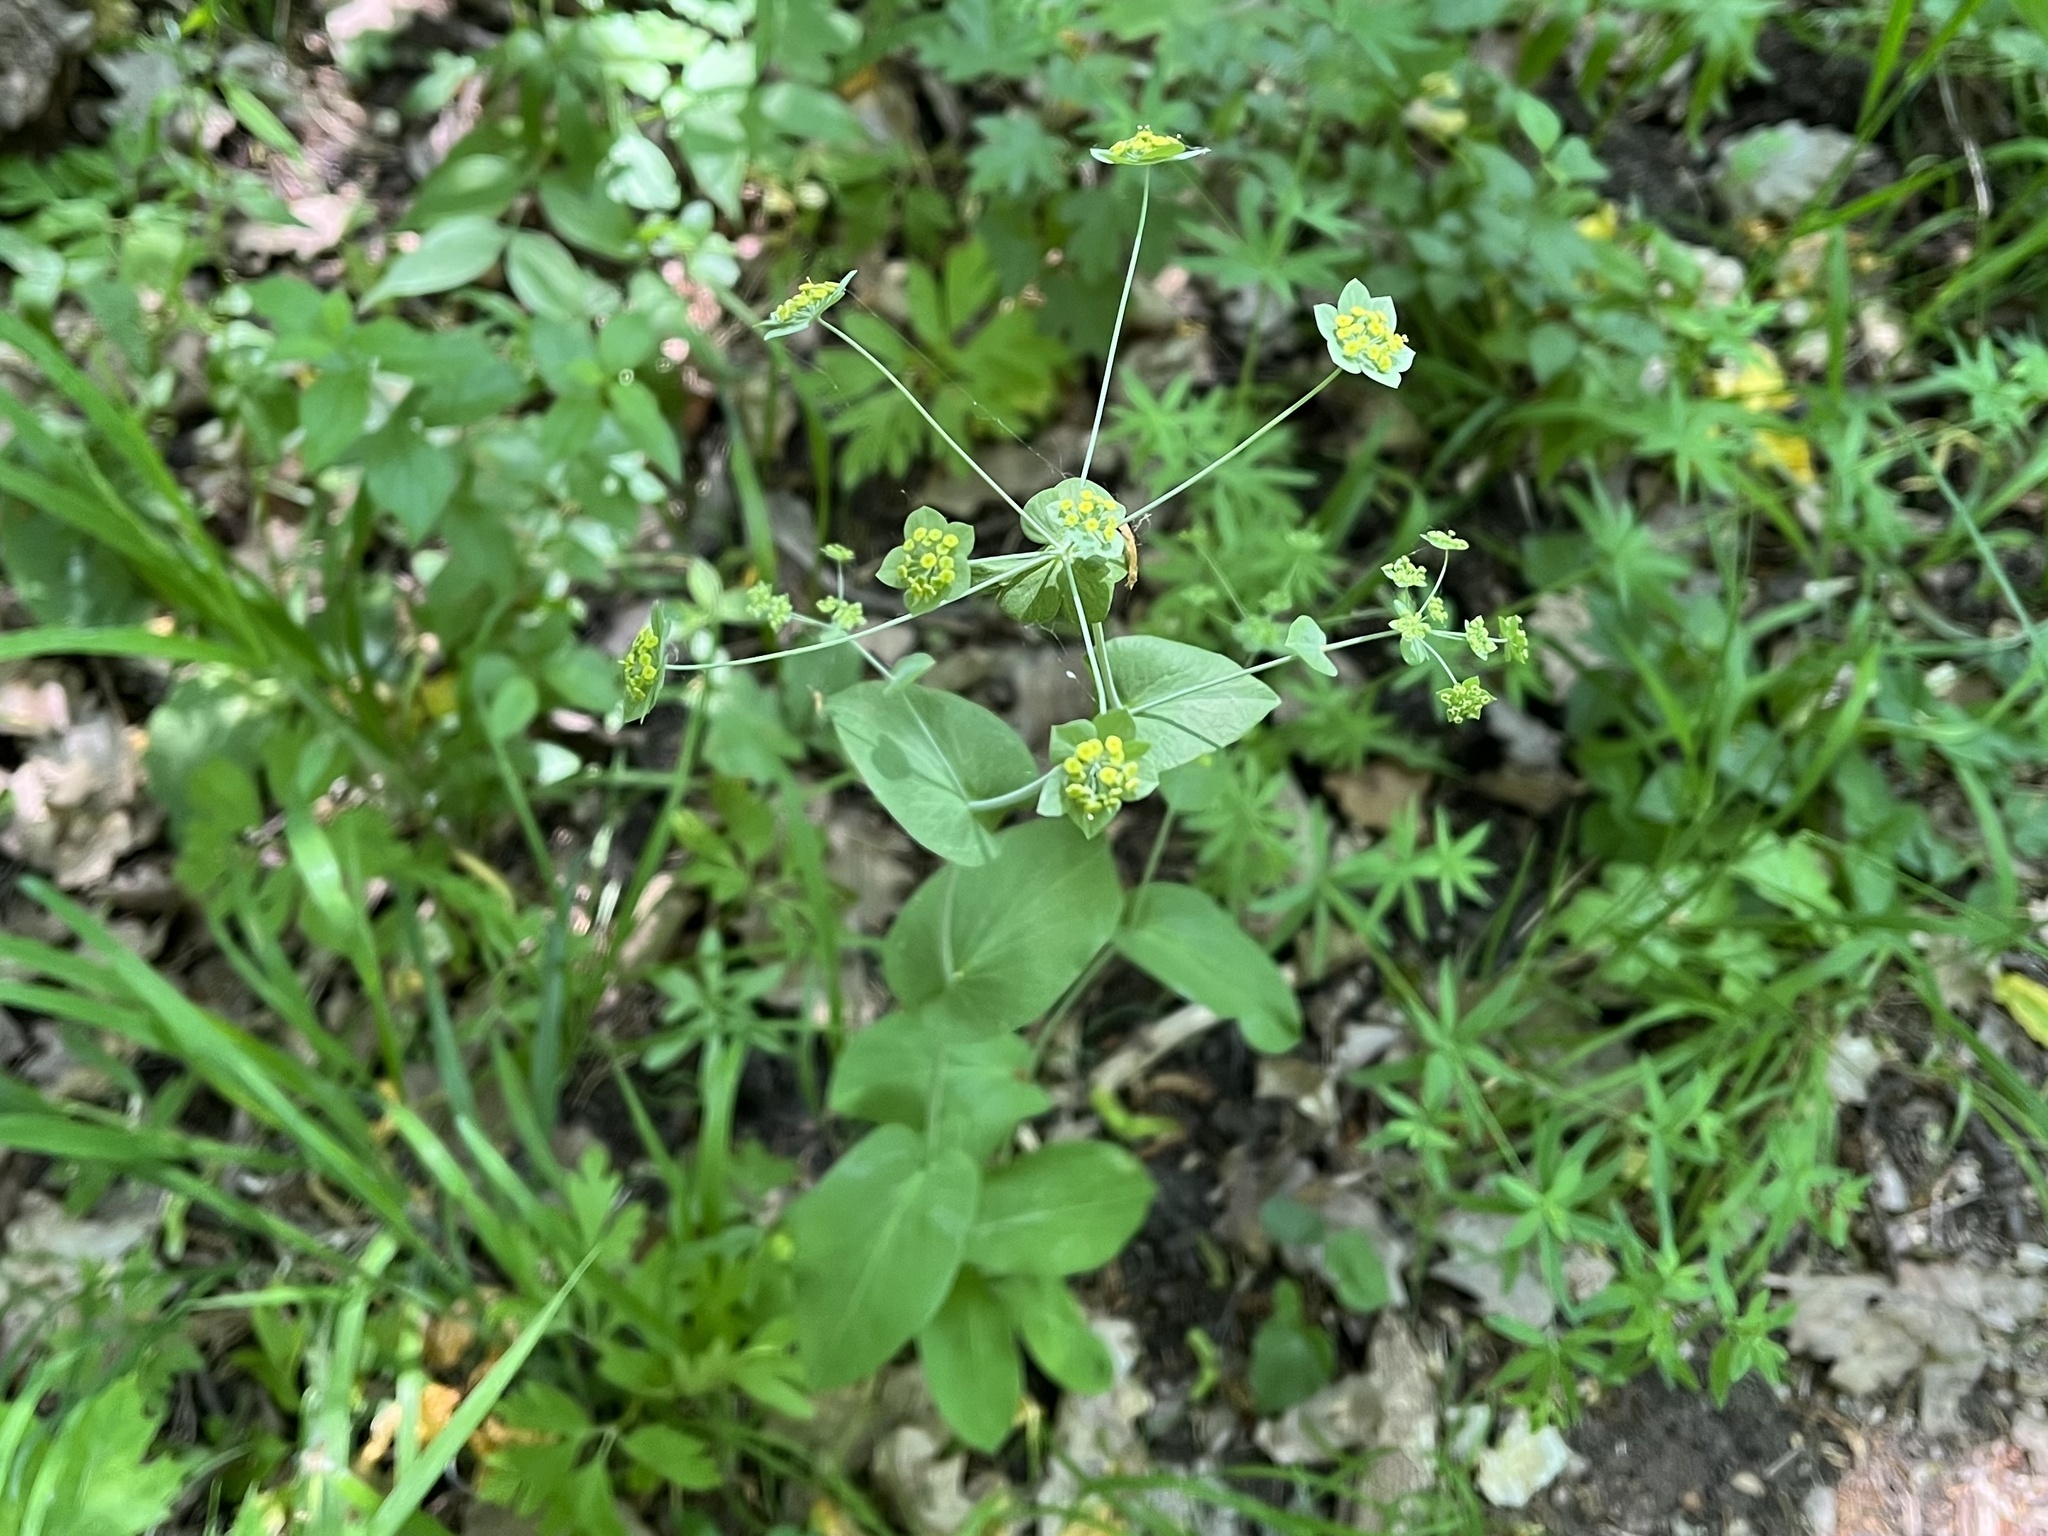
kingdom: Plantae
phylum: Tracheophyta
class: Magnoliopsida
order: Apiales
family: Apiaceae
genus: Bupleurum
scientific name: Bupleurum longifolium
